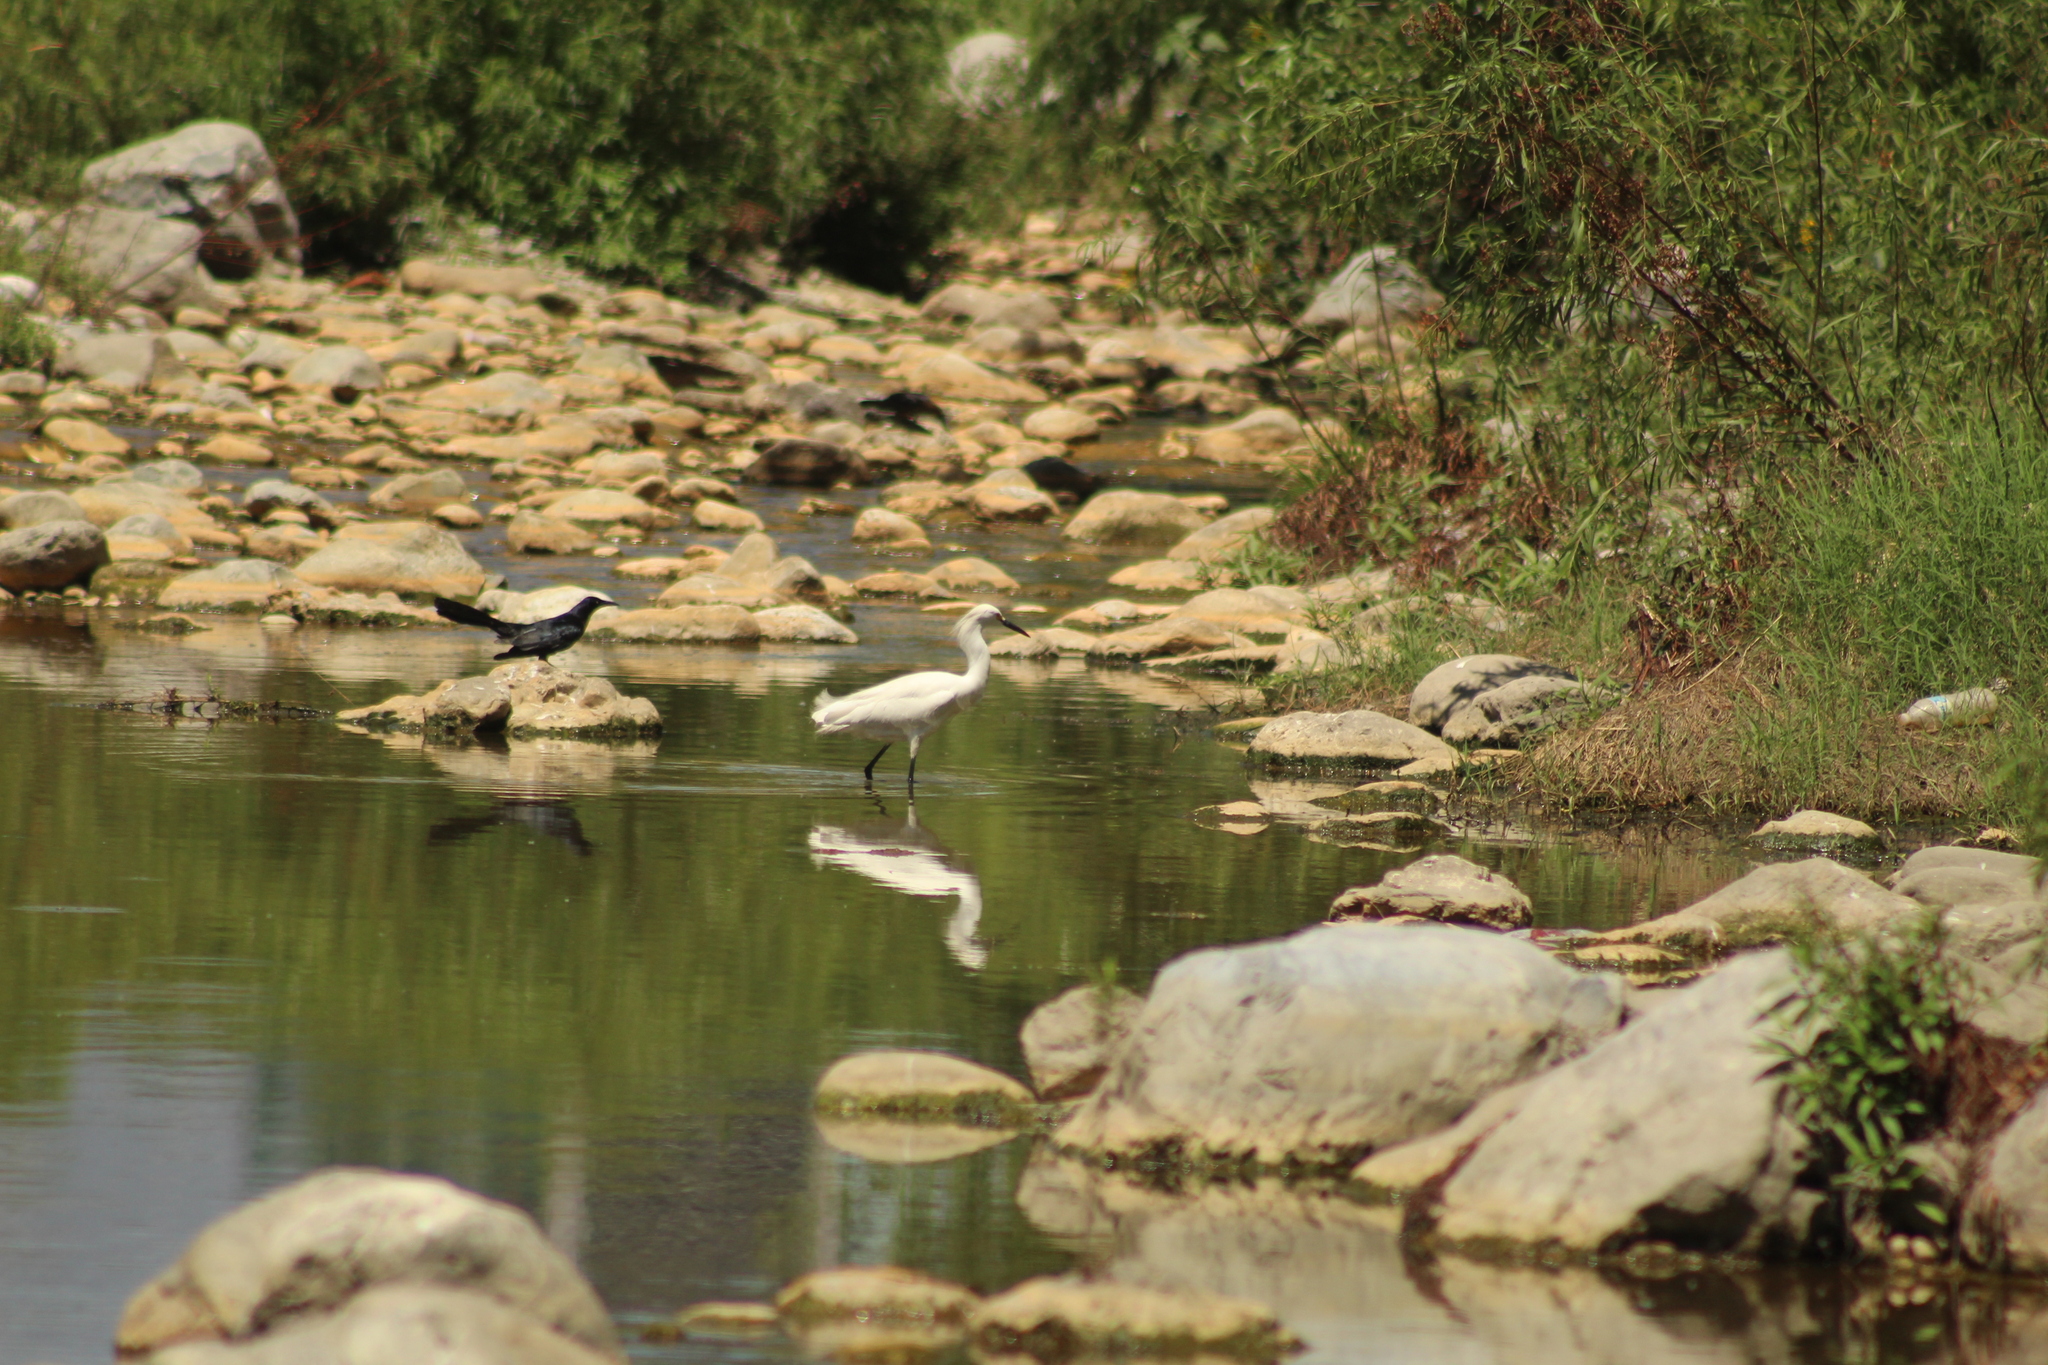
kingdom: Animalia
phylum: Chordata
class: Aves
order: Passeriformes
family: Icteridae
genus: Quiscalus
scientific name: Quiscalus mexicanus
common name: Great-tailed grackle
